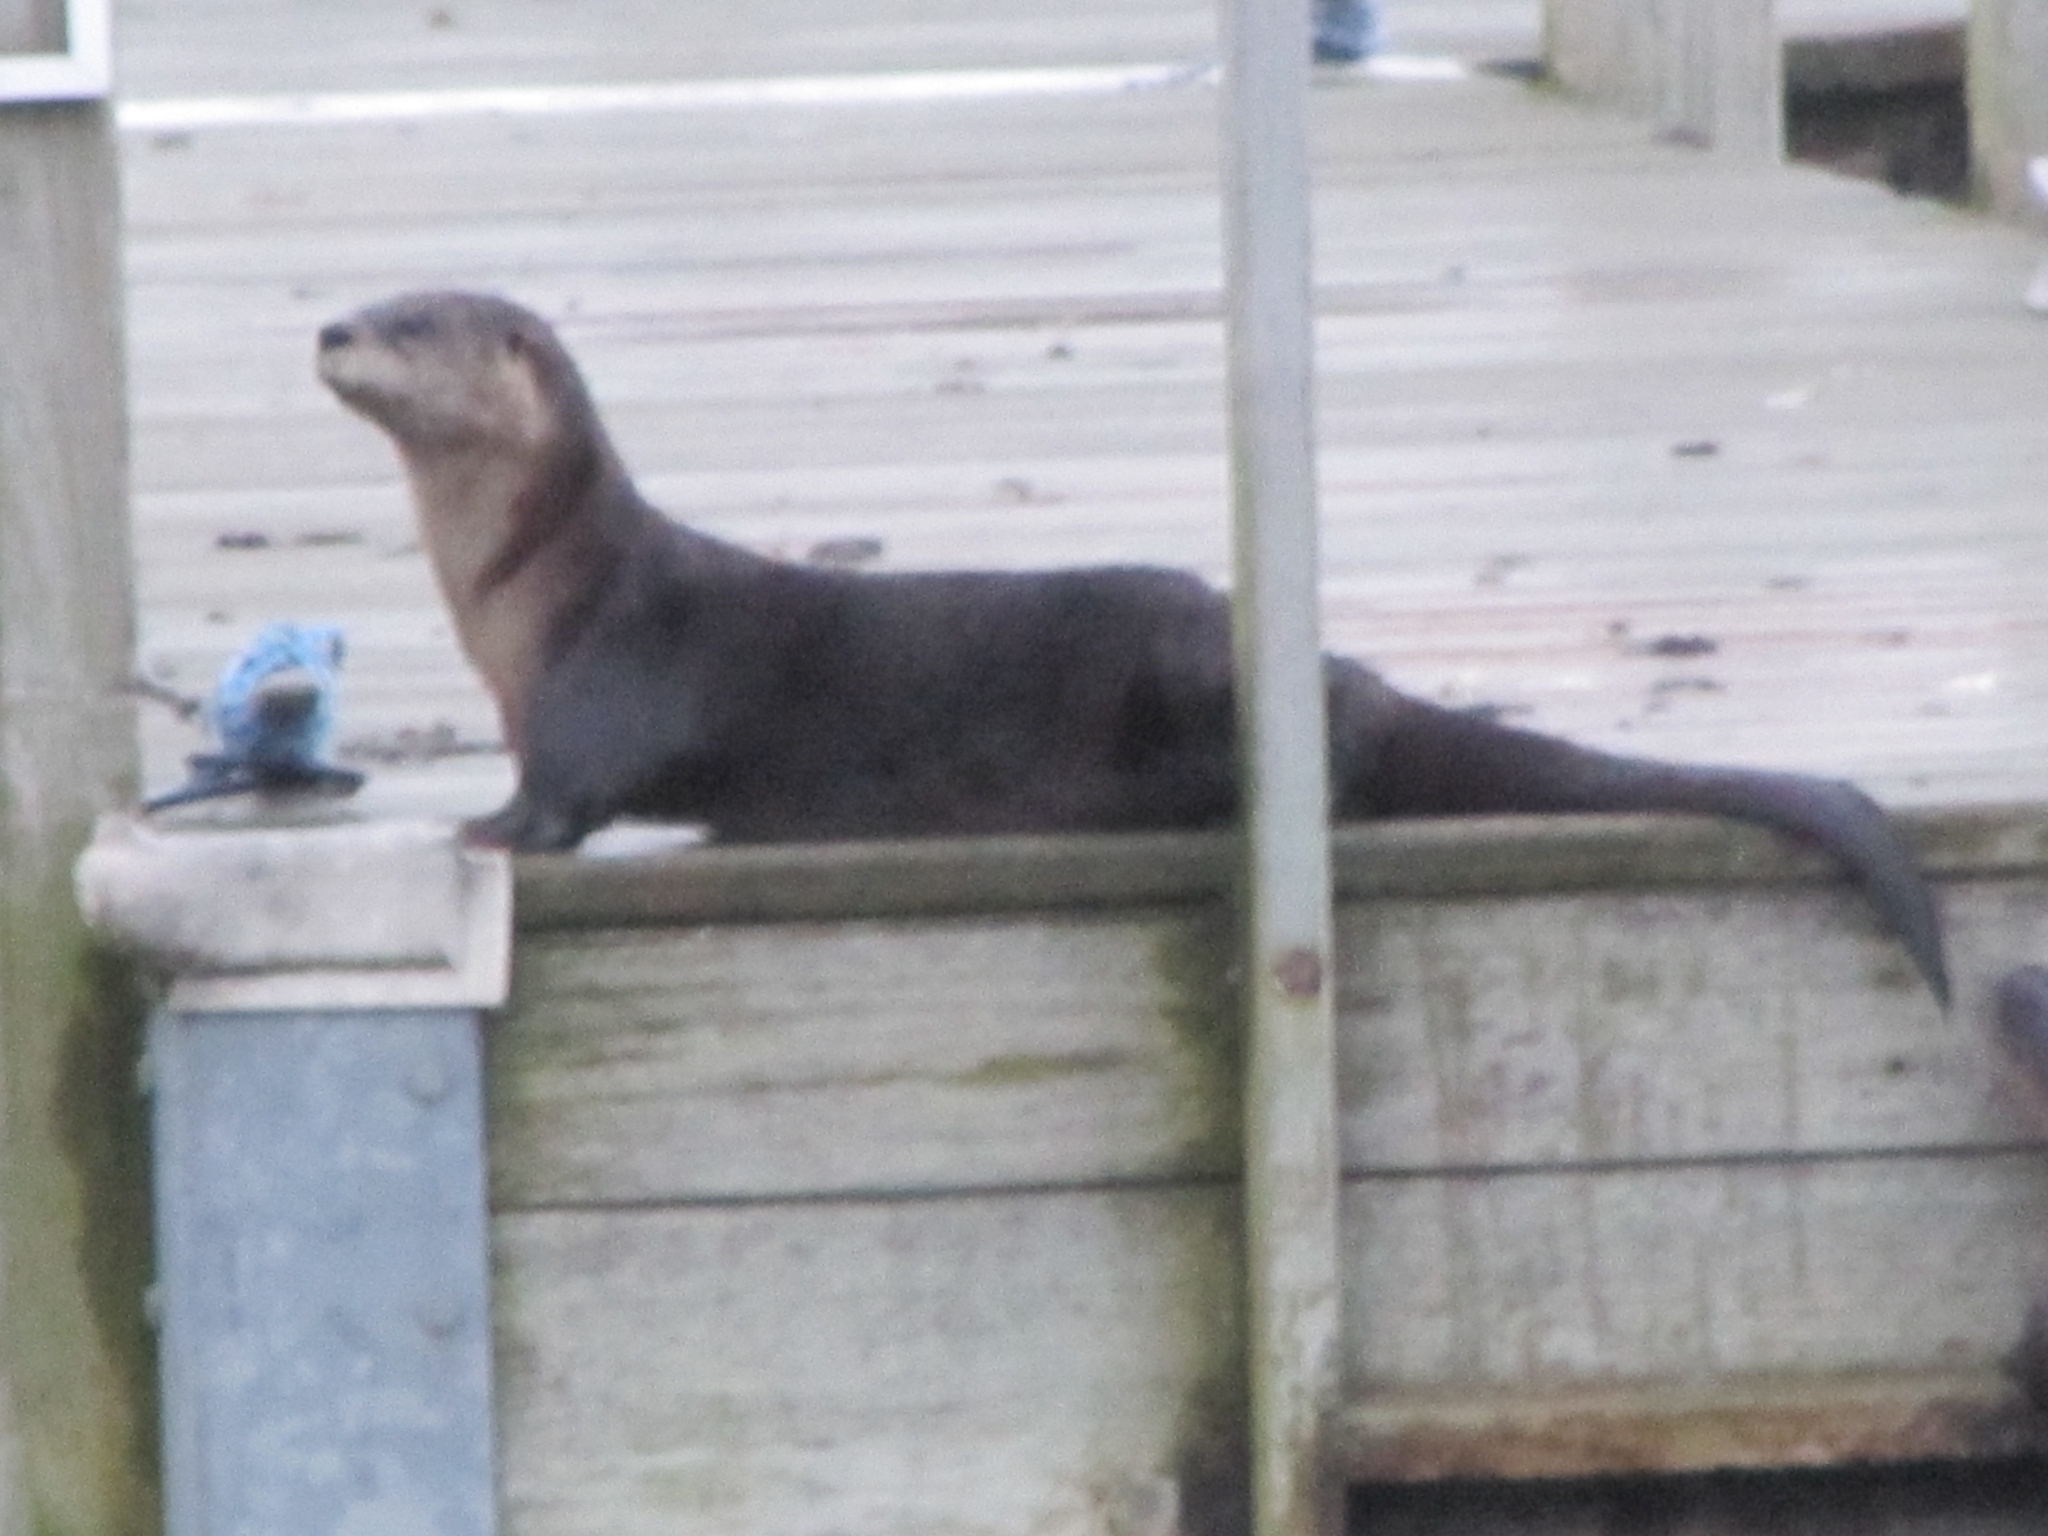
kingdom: Animalia
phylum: Chordata
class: Mammalia
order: Carnivora
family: Mustelidae
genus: Lontra
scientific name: Lontra canadensis
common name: North american river otter
